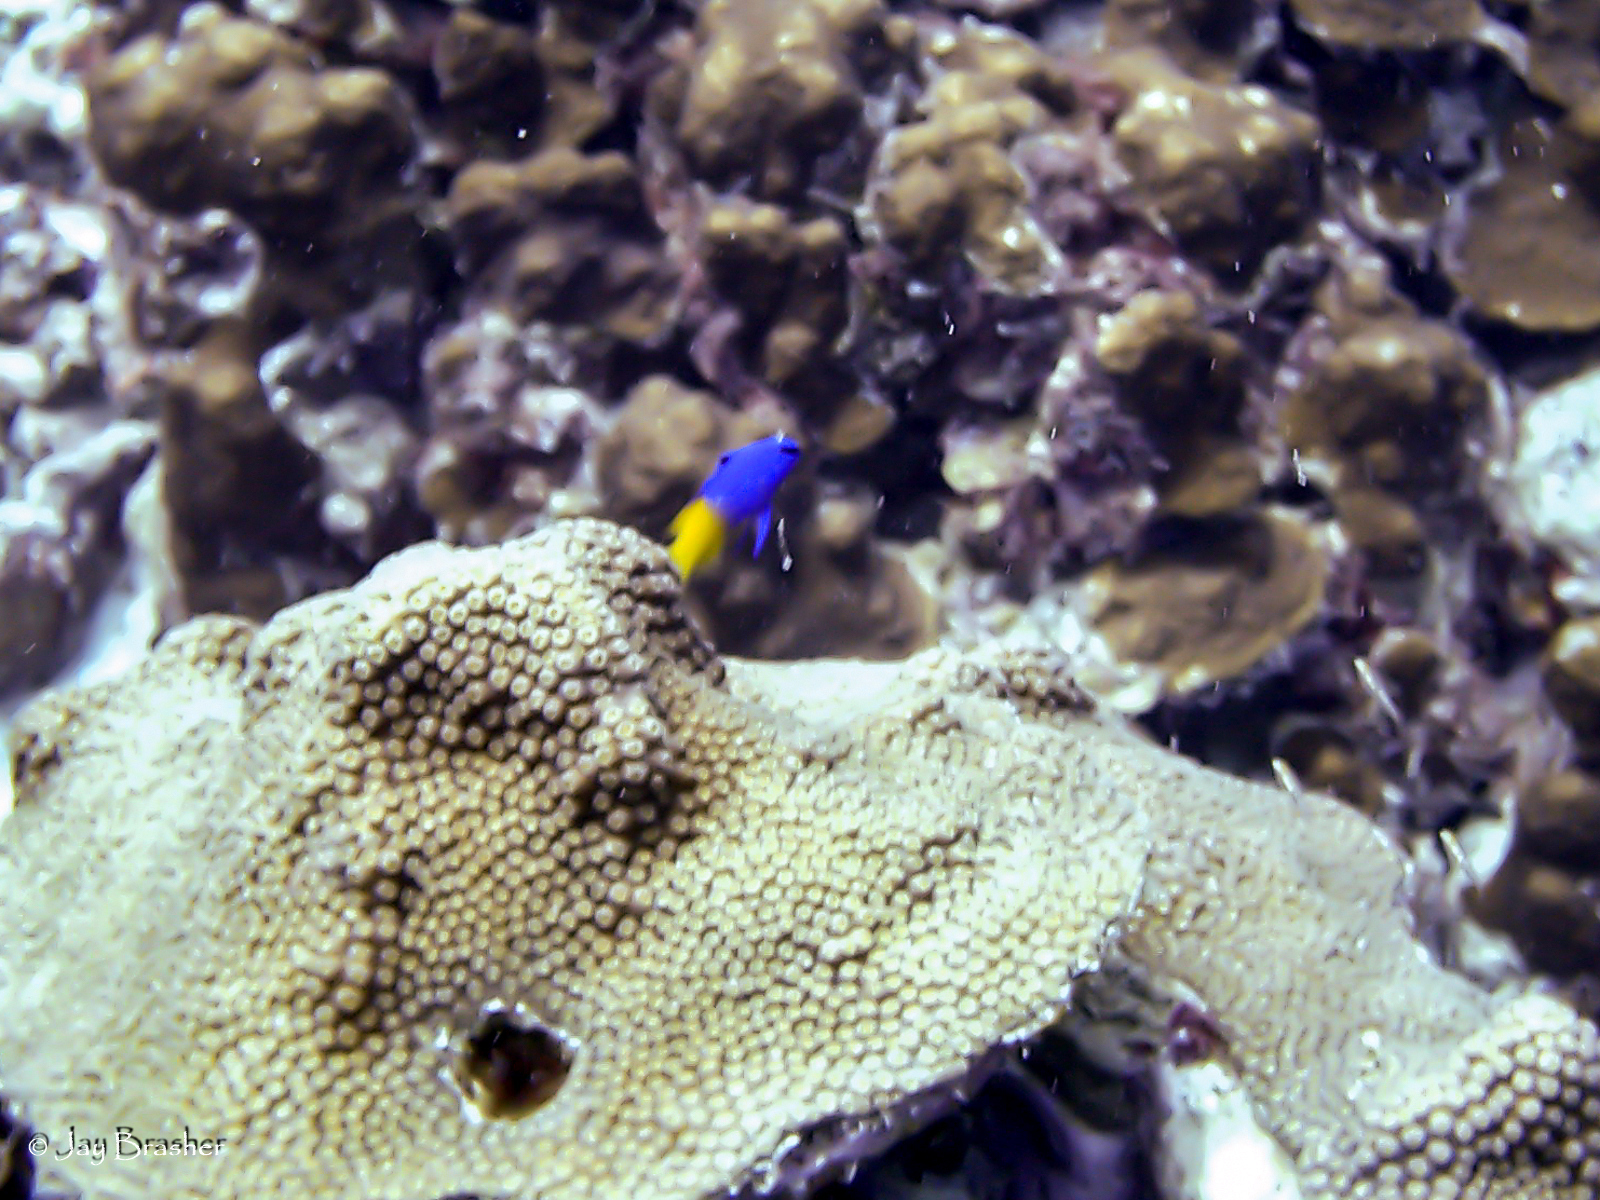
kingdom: Animalia
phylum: Chordata
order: Perciformes
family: Grammatidae
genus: Gramma
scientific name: Gramma loreto
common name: Fairy basslet
